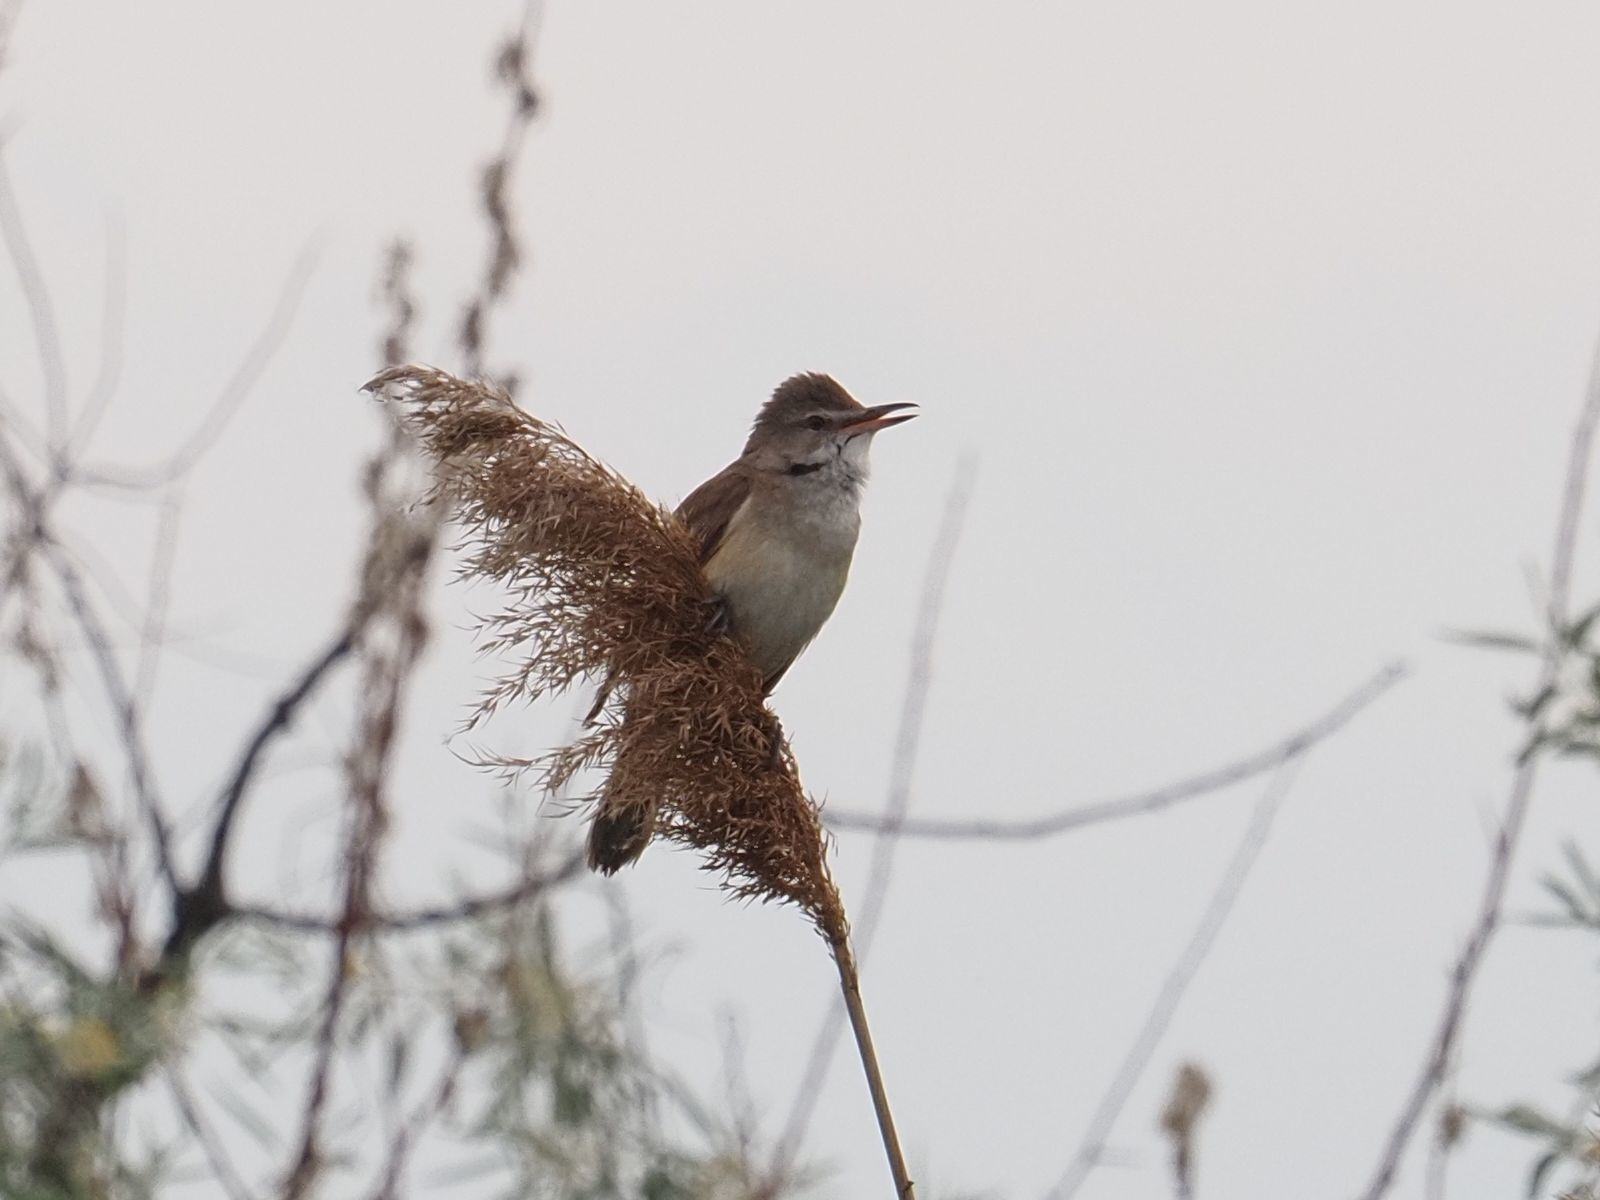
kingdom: Animalia
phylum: Chordata
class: Aves
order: Passeriformes
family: Acrocephalidae
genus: Acrocephalus
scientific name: Acrocephalus arundinaceus
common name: Great reed warbler
